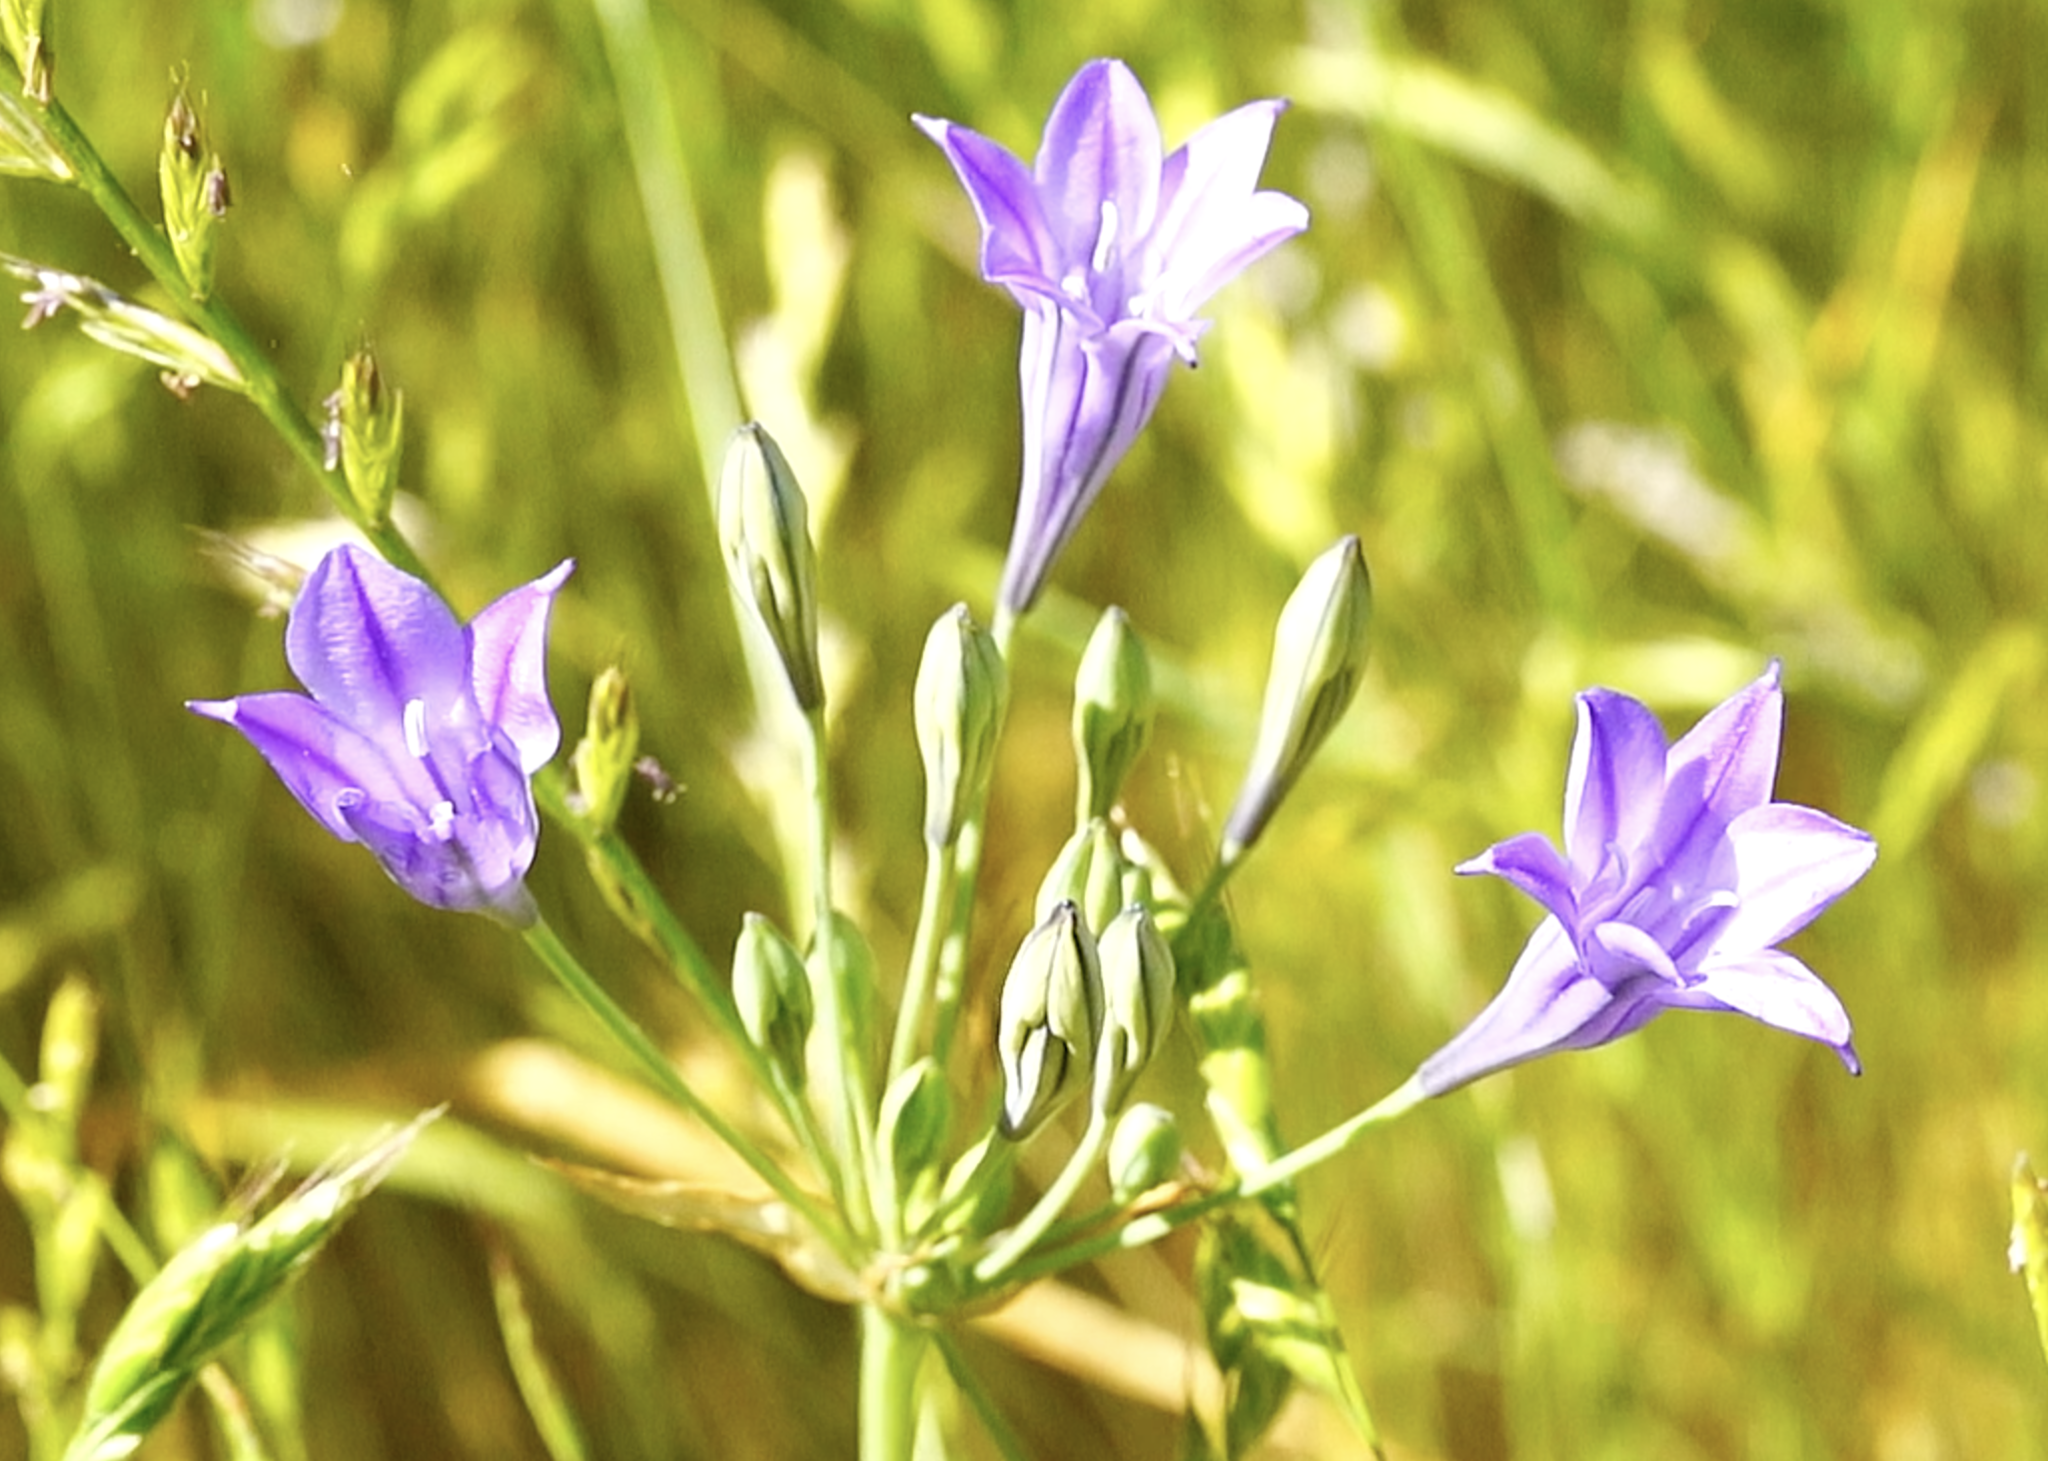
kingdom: Plantae
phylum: Tracheophyta
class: Liliopsida
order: Asparagales
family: Asparagaceae
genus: Triteleia
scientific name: Triteleia laxa
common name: Triplet-lily
